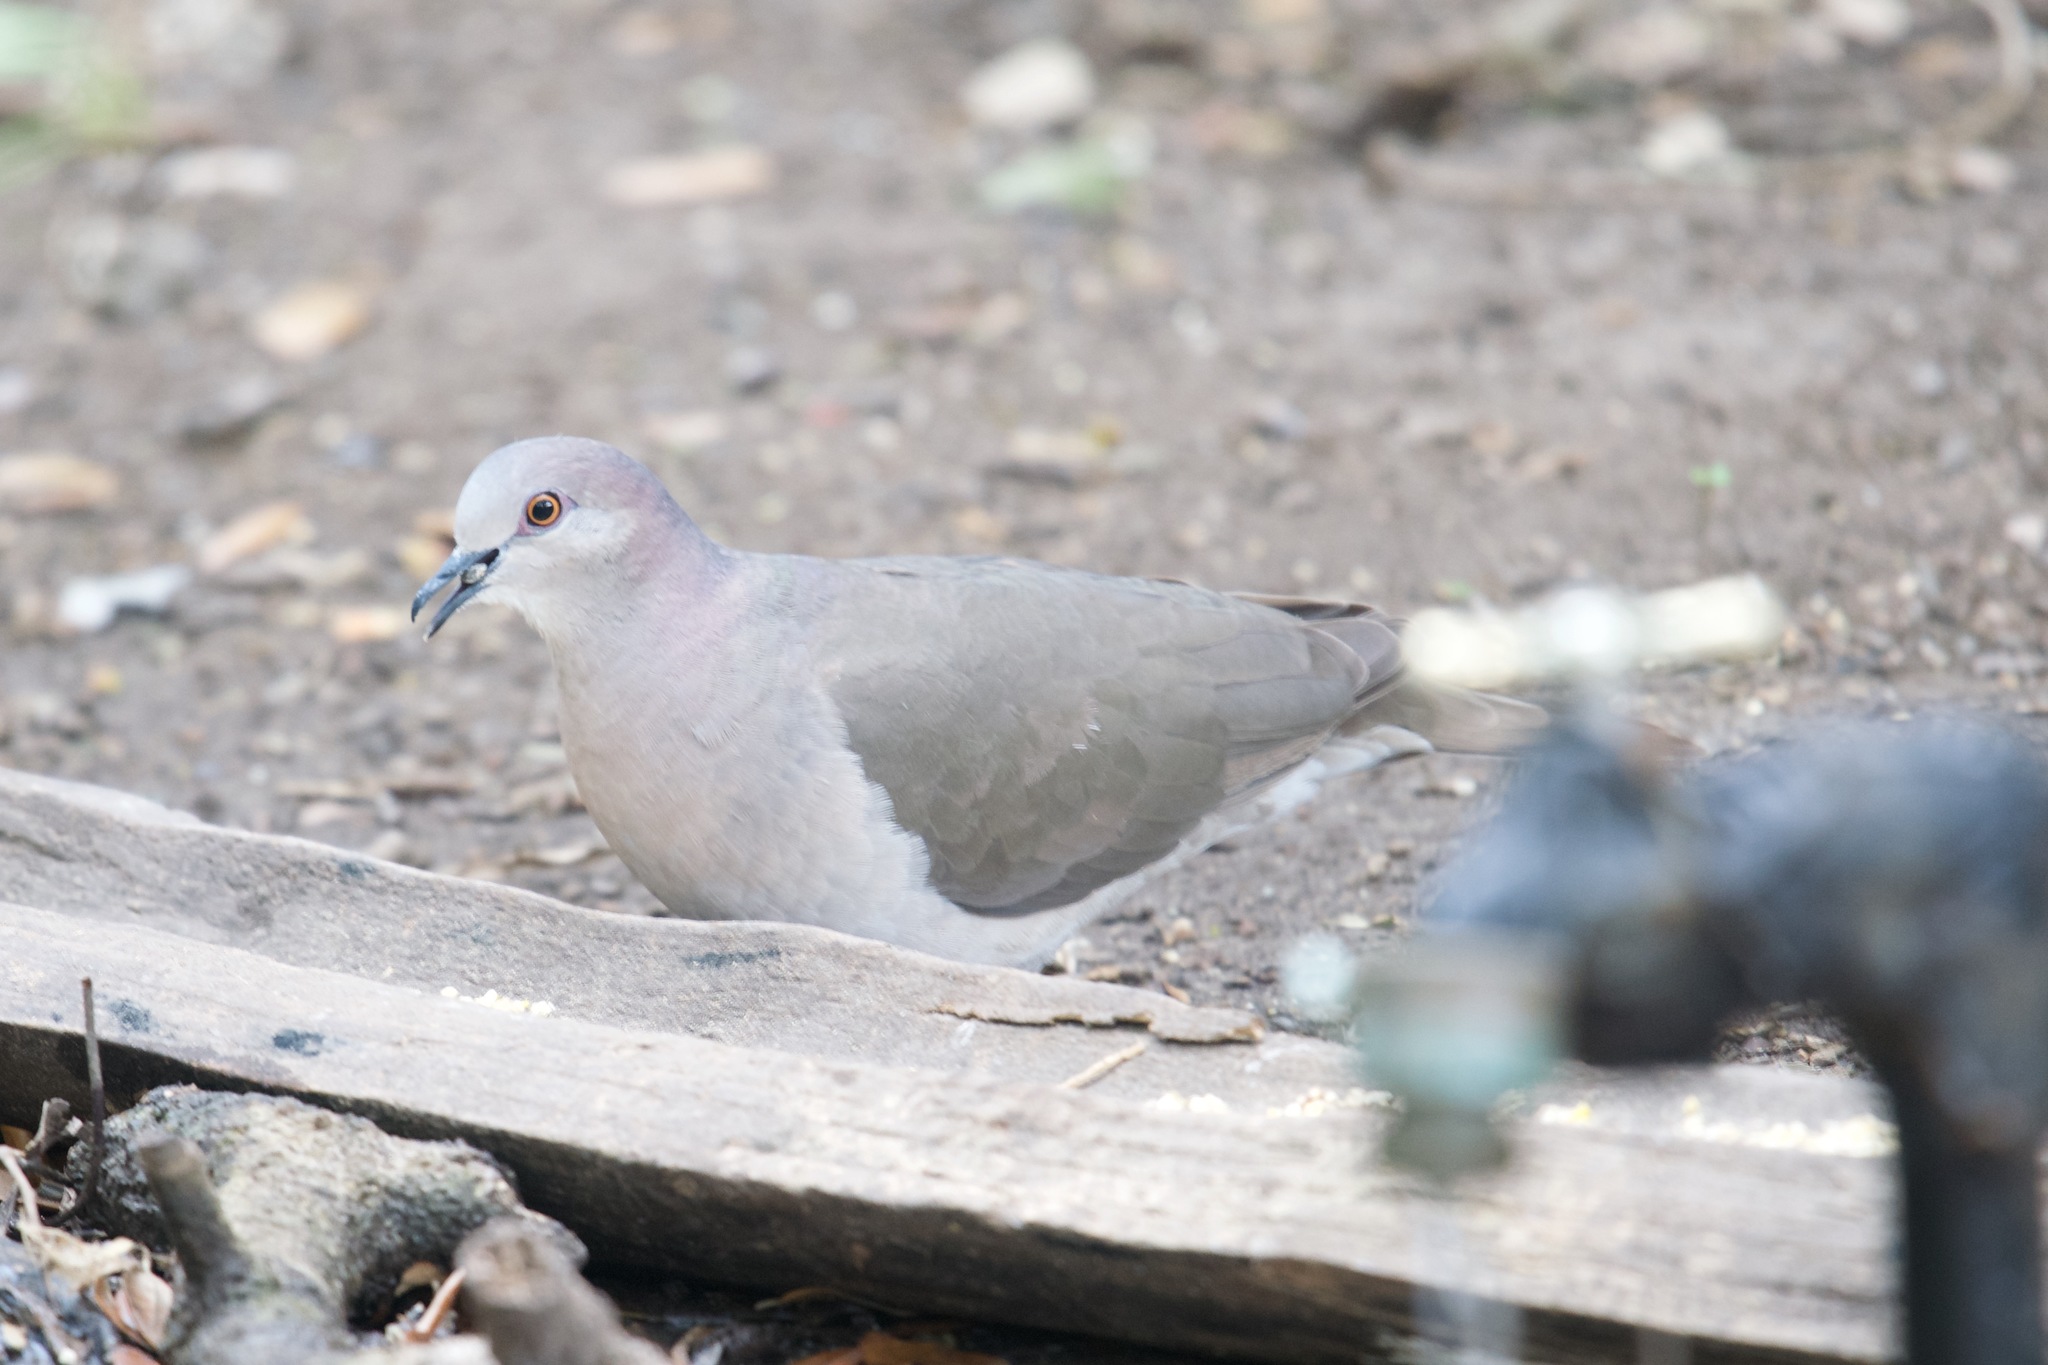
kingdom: Animalia
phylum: Chordata
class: Aves
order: Columbiformes
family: Columbidae
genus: Leptotila
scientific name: Leptotila verreauxi
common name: White-tipped dove
